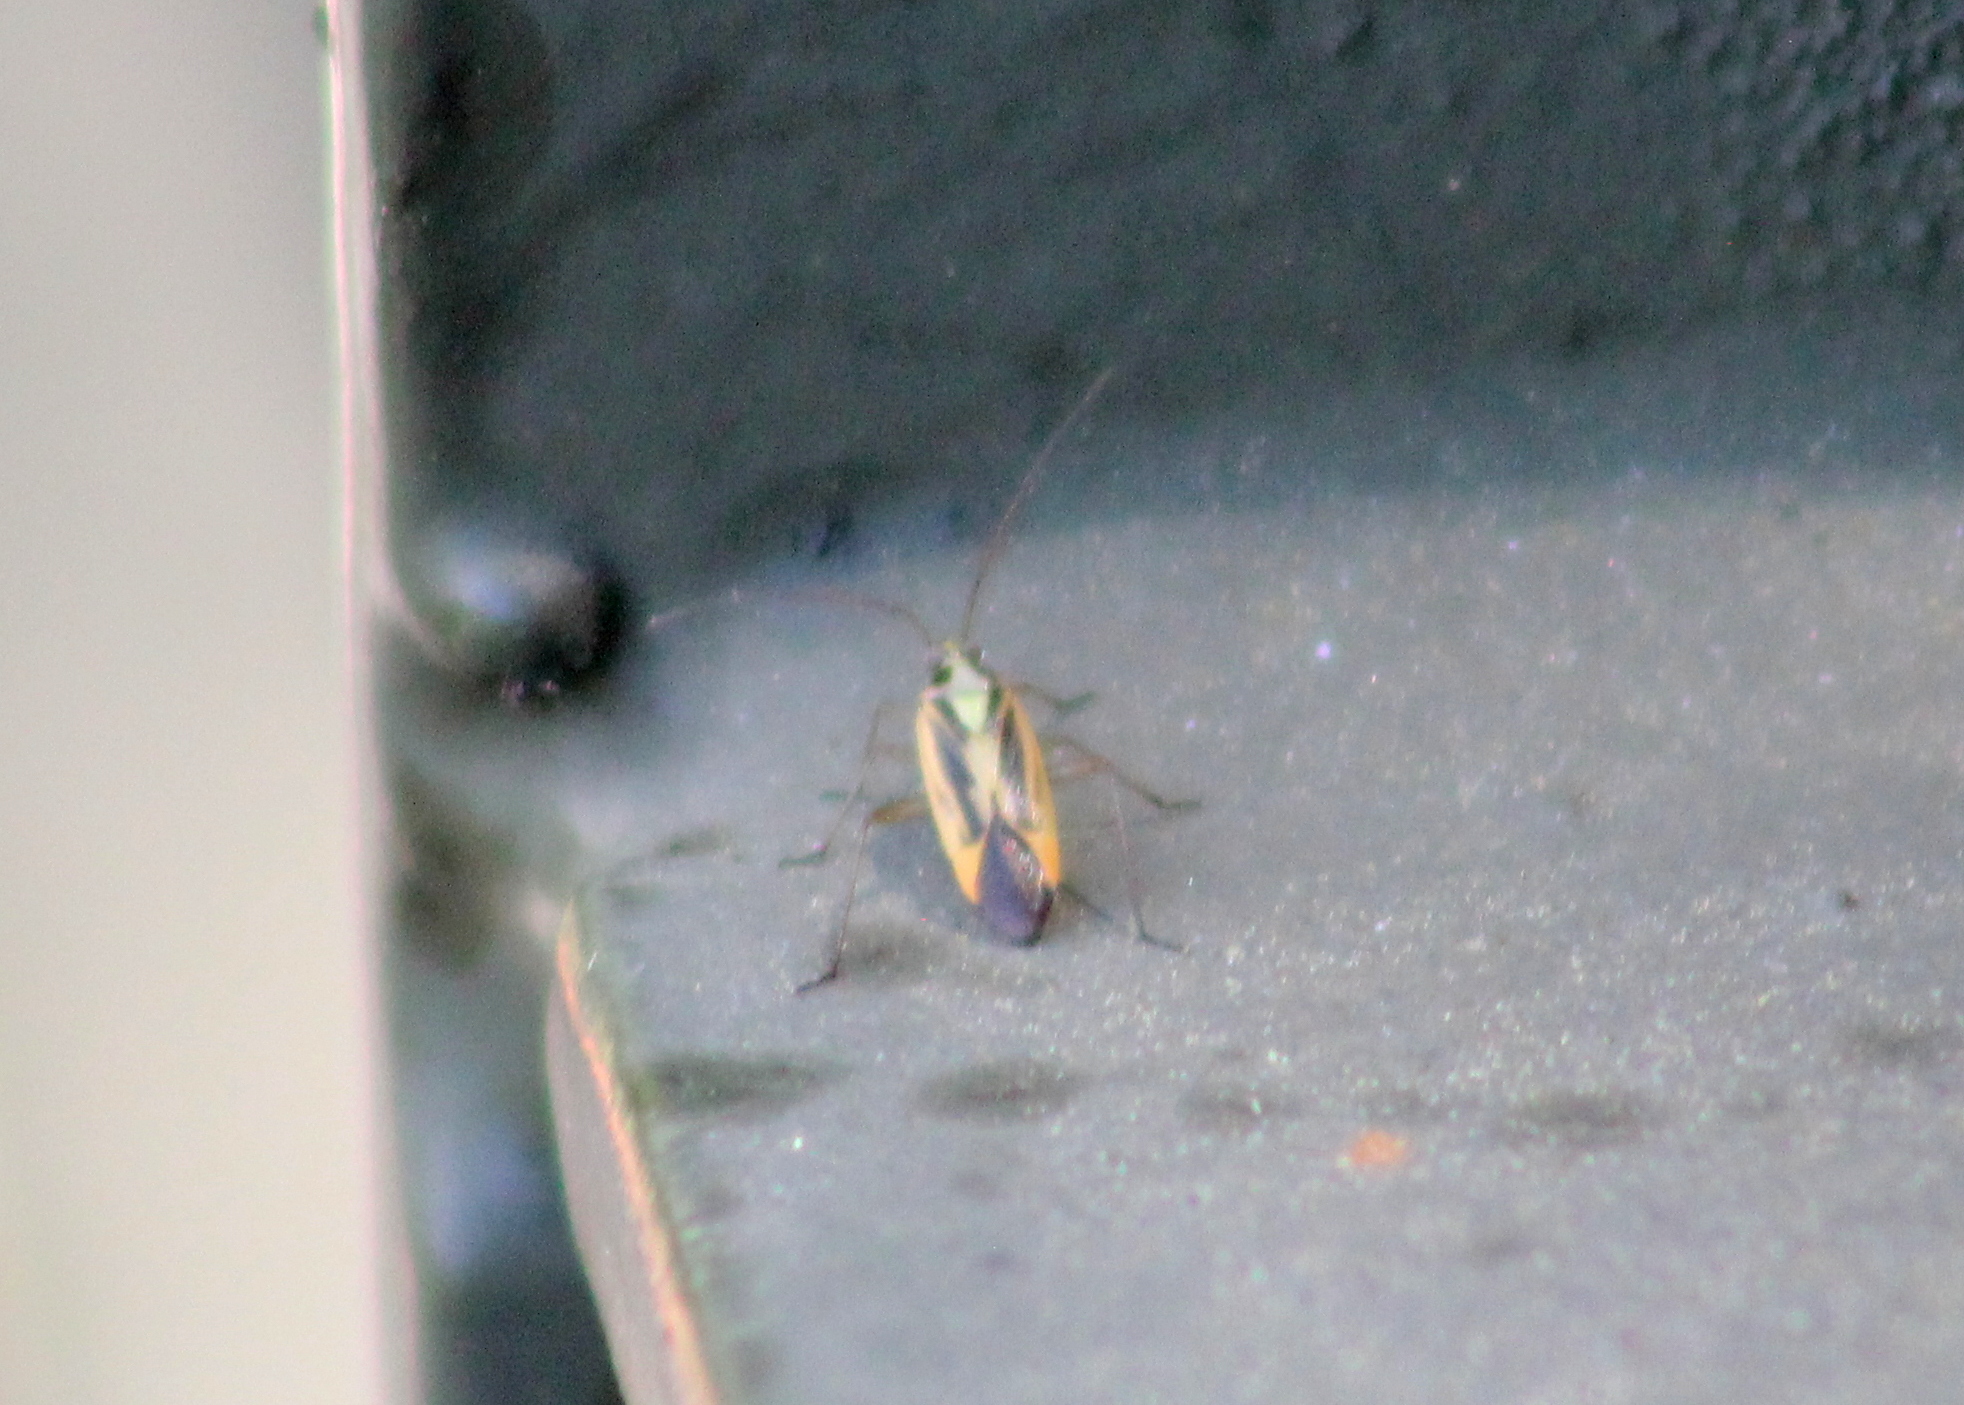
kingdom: Animalia
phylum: Arthropoda
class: Insecta
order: Hemiptera
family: Miridae
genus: Stenotus
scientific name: Stenotus binotatus
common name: Plant bug
